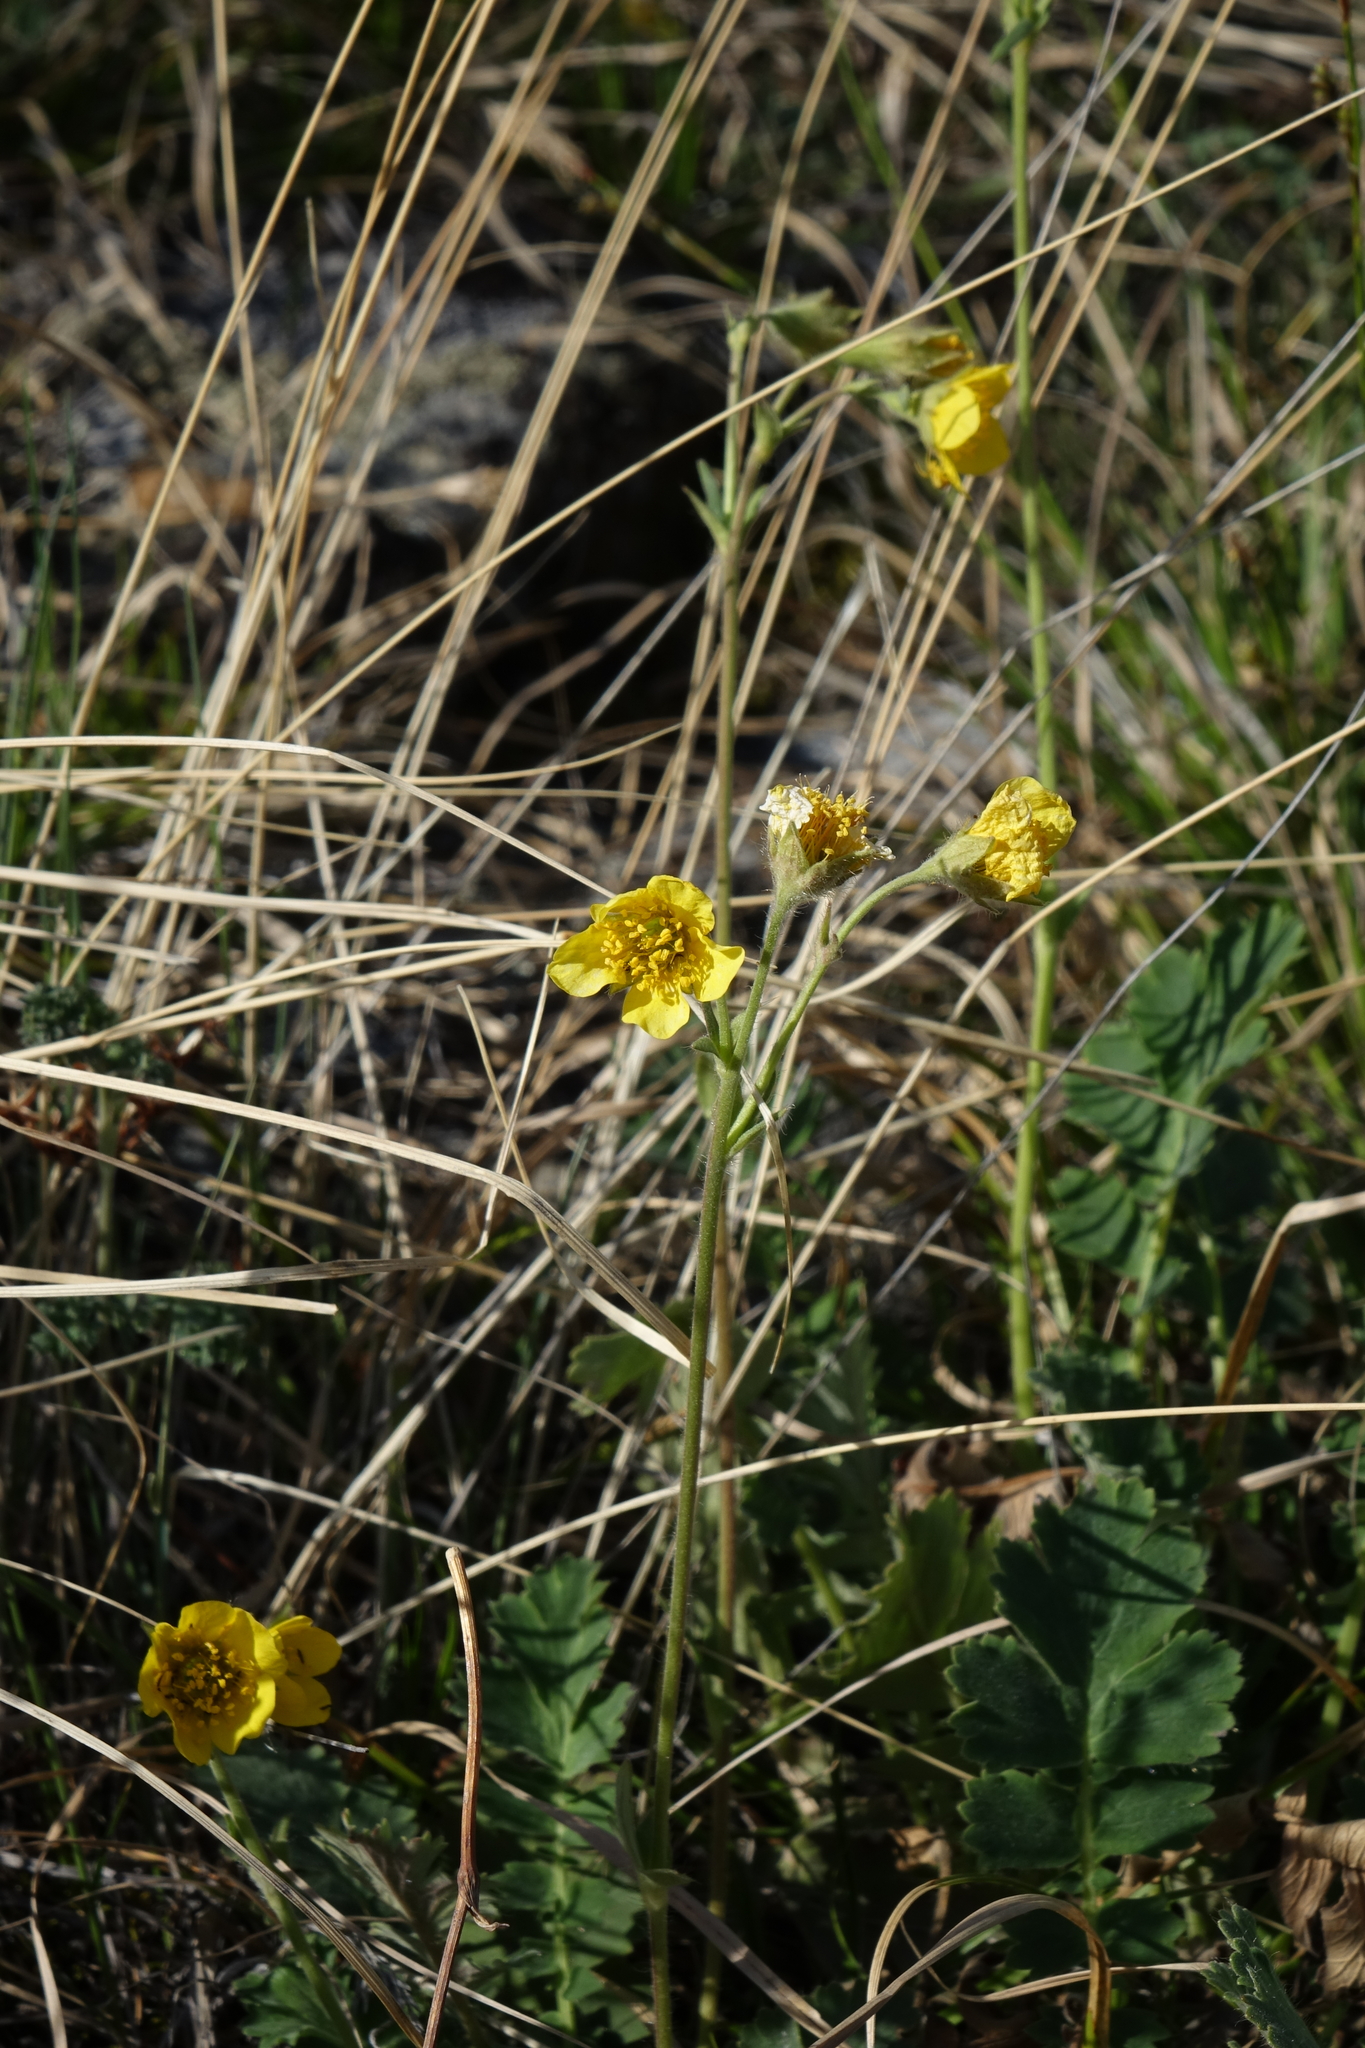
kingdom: Plantae
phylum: Tracheophyta
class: Magnoliopsida
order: Rosales
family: Rosaceae
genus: Geum
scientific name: Geum geoides
